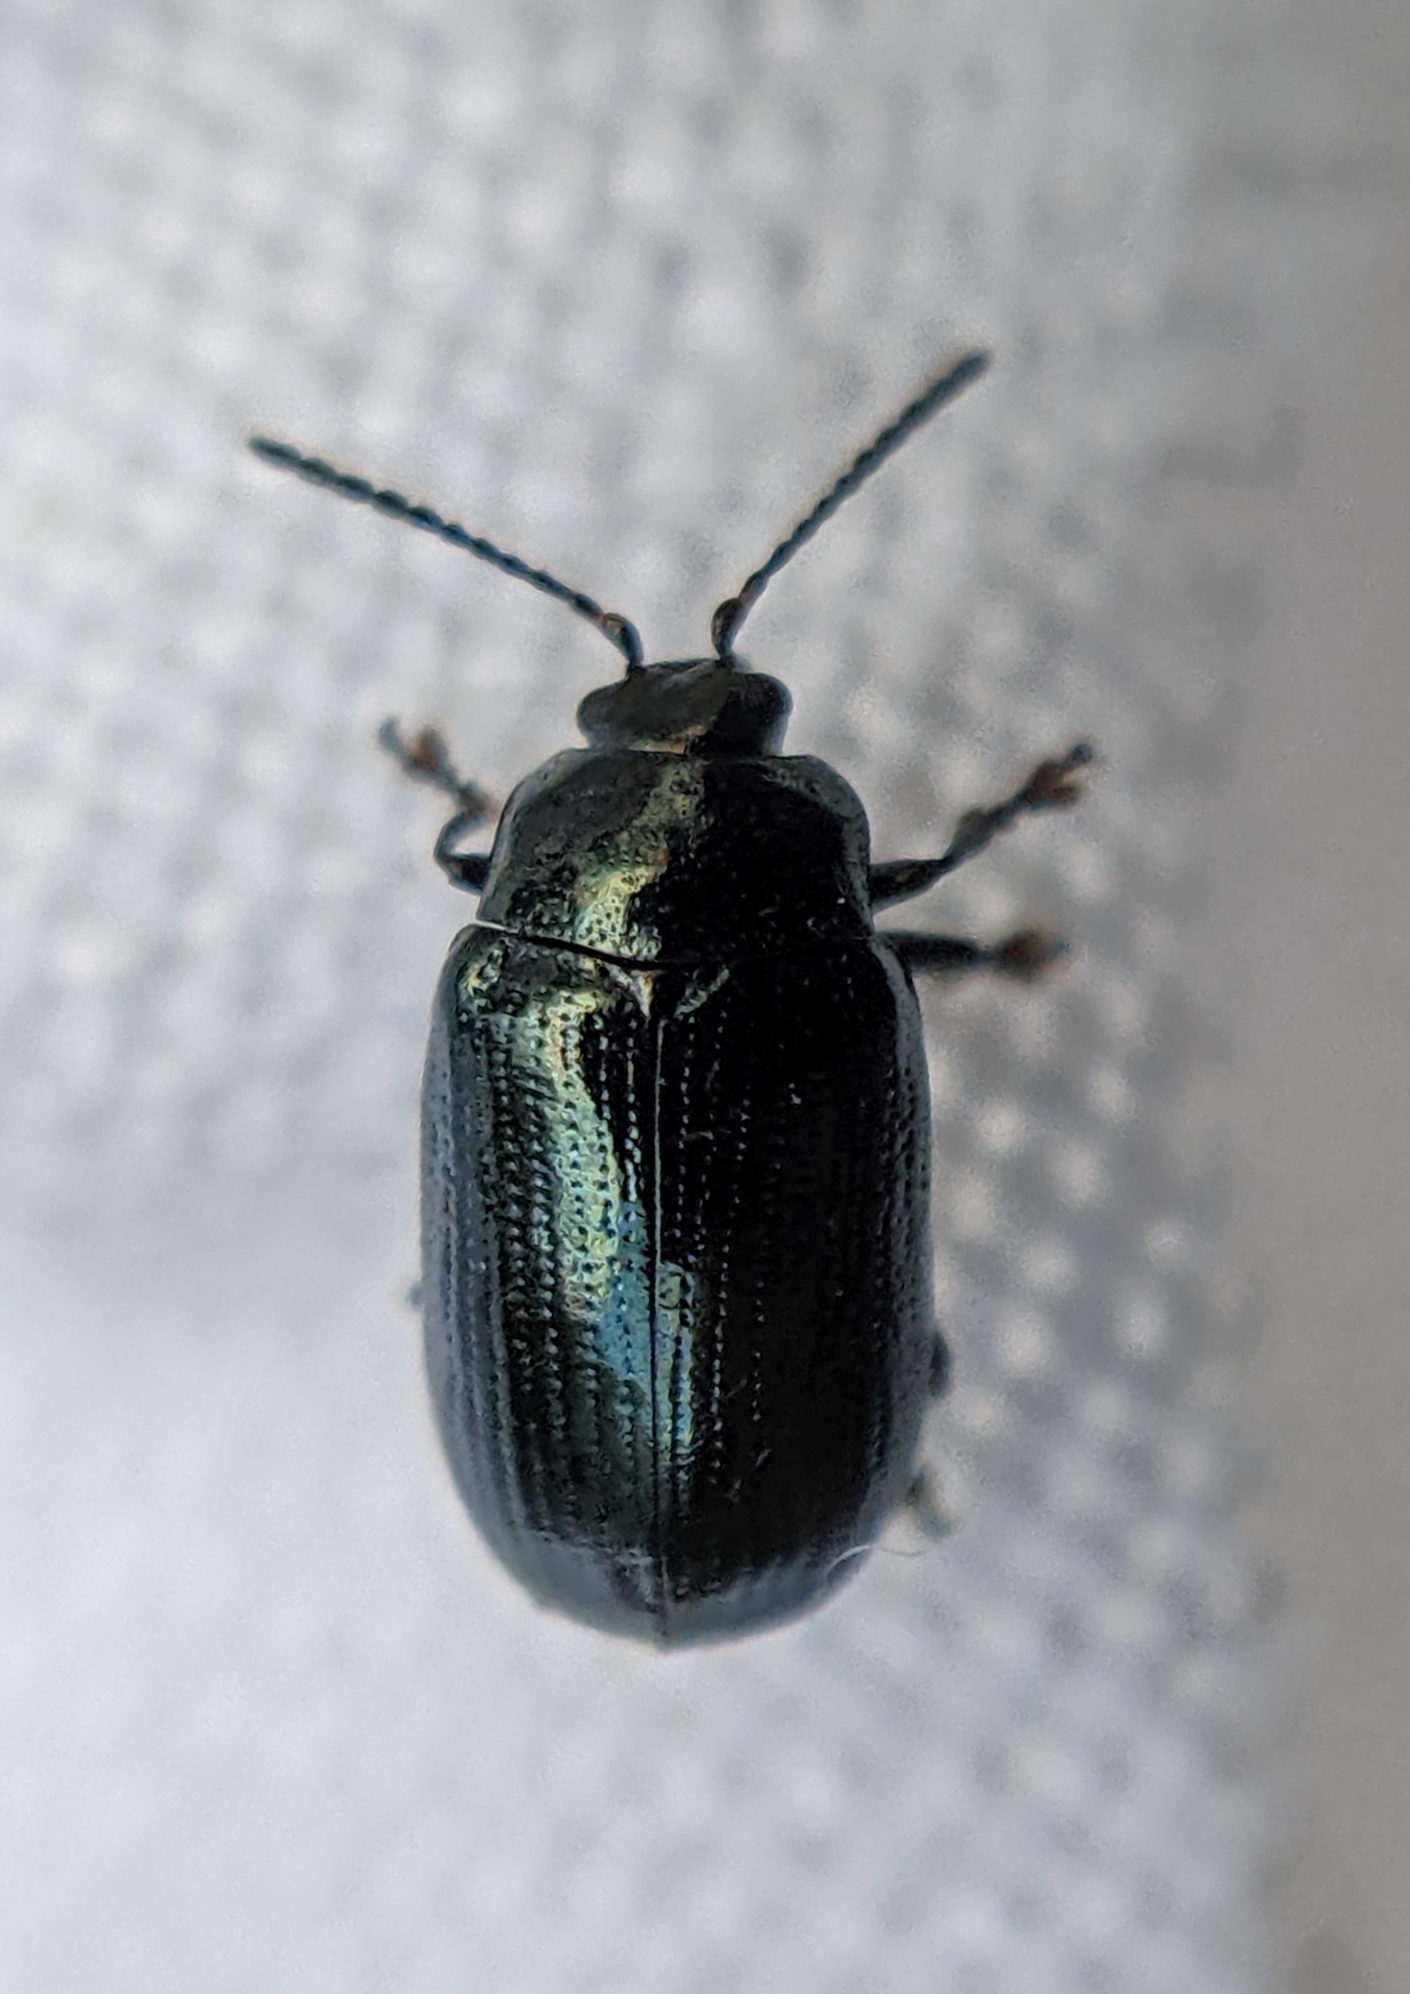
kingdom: Animalia
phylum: Arthropoda
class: Insecta
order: Coleoptera
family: Chrysomelidae
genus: Phratora
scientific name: Phratora laticollis
